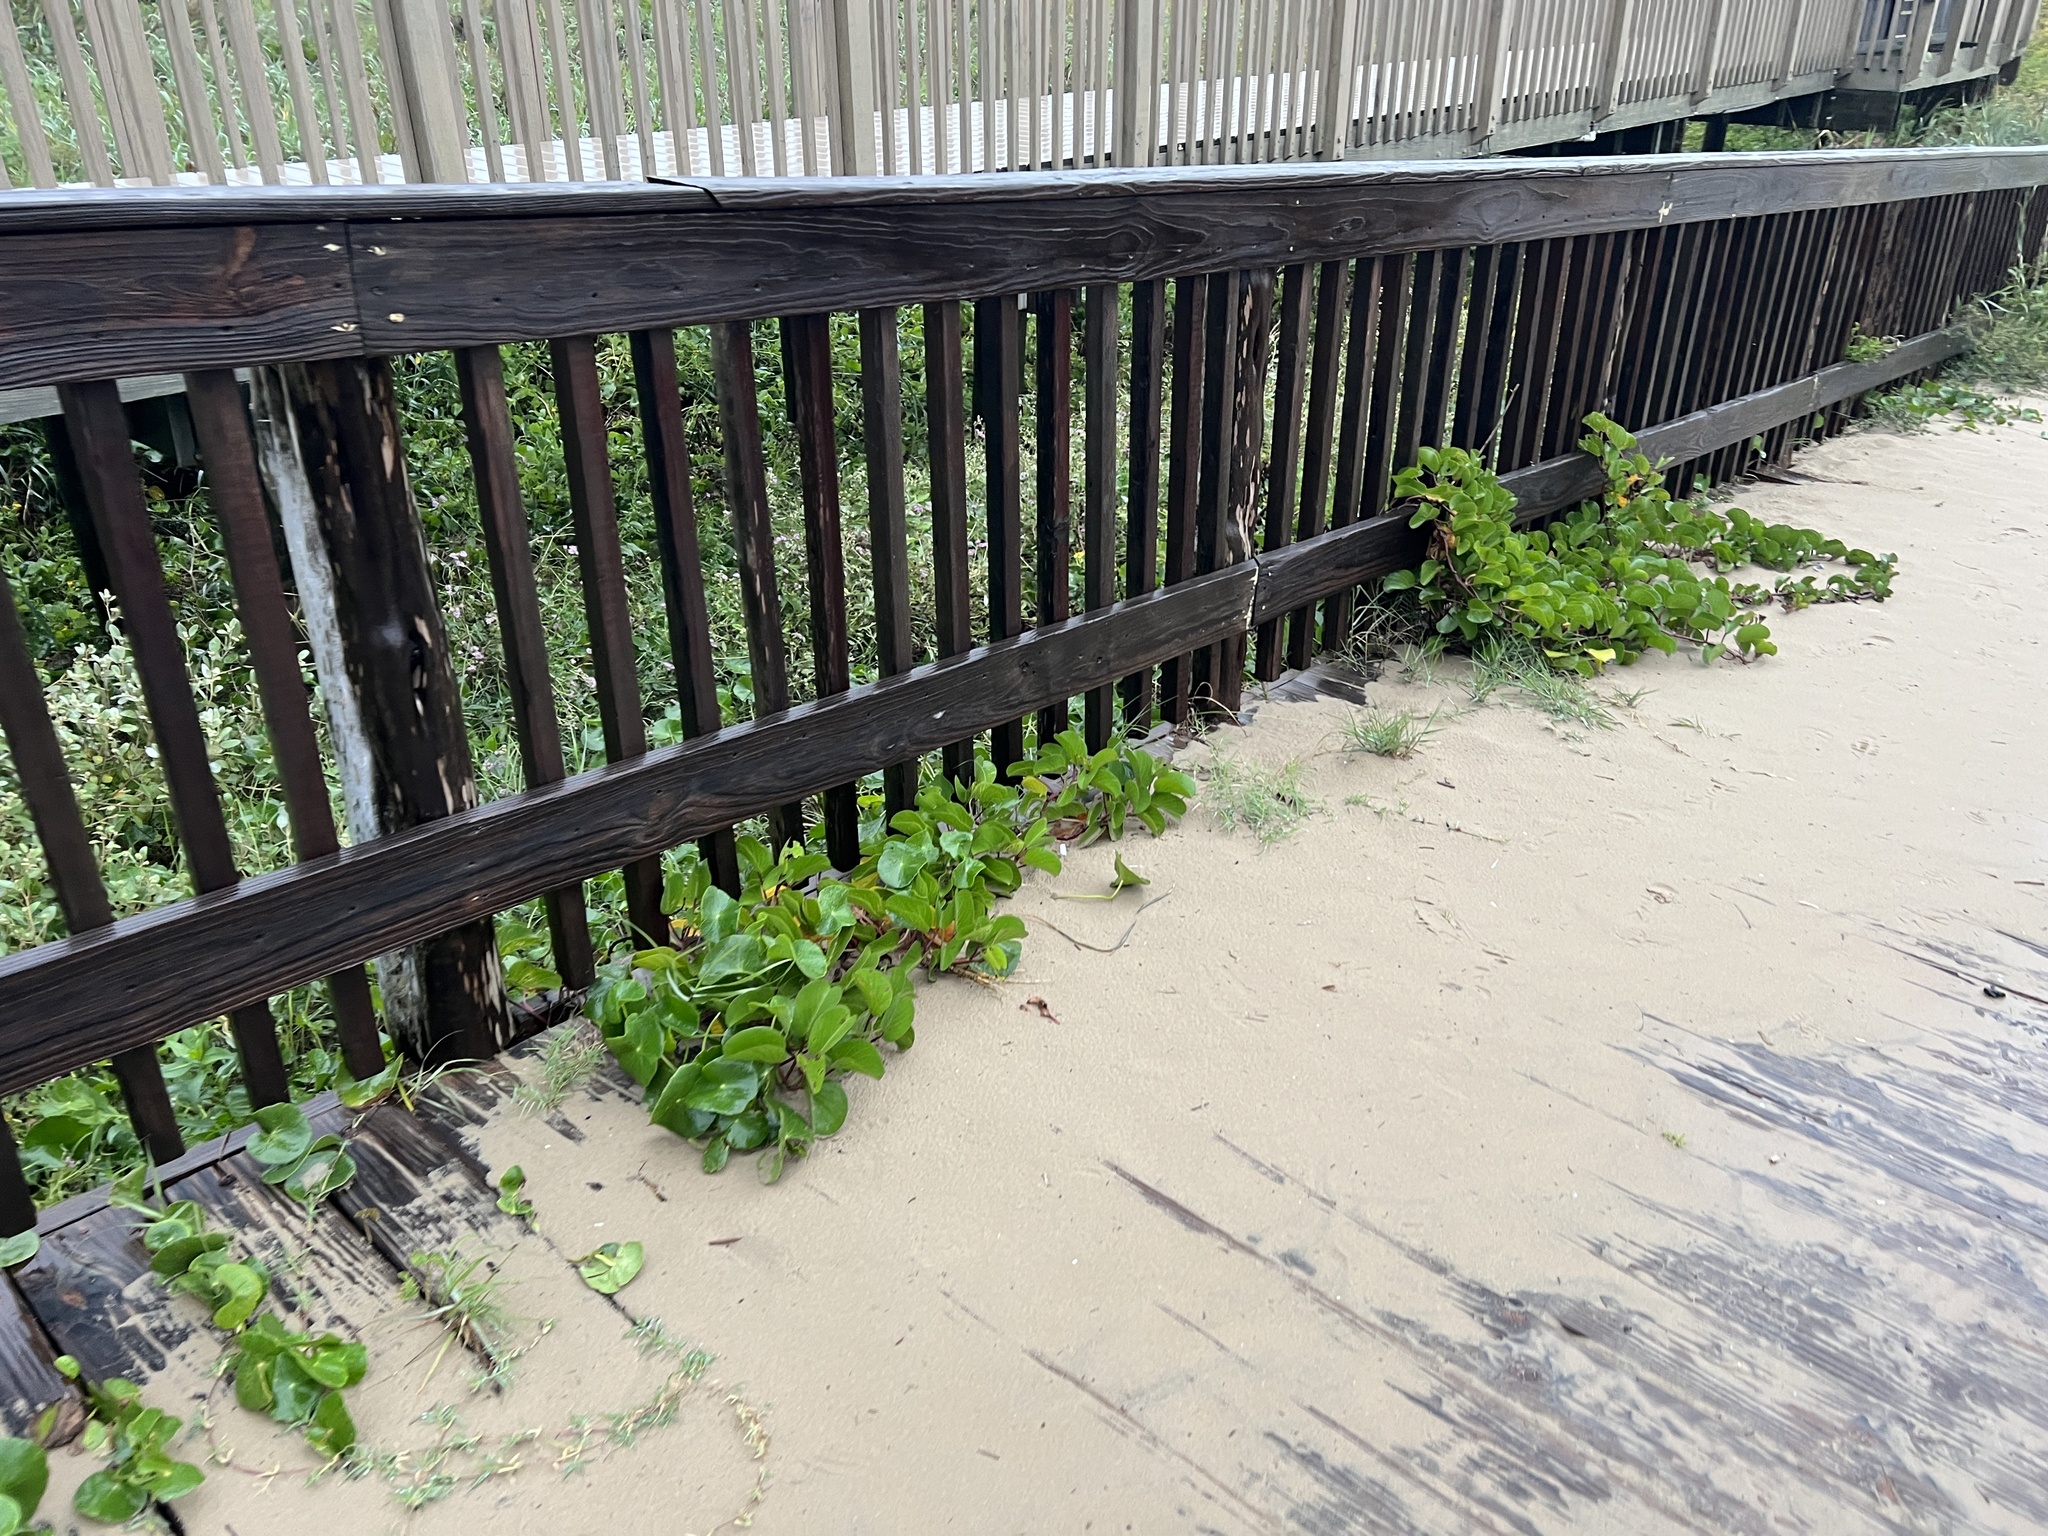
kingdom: Plantae
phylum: Tracheophyta
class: Magnoliopsida
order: Solanales
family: Convolvulaceae
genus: Ipomoea
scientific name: Ipomoea pes-caprae
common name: Beach morning glory
